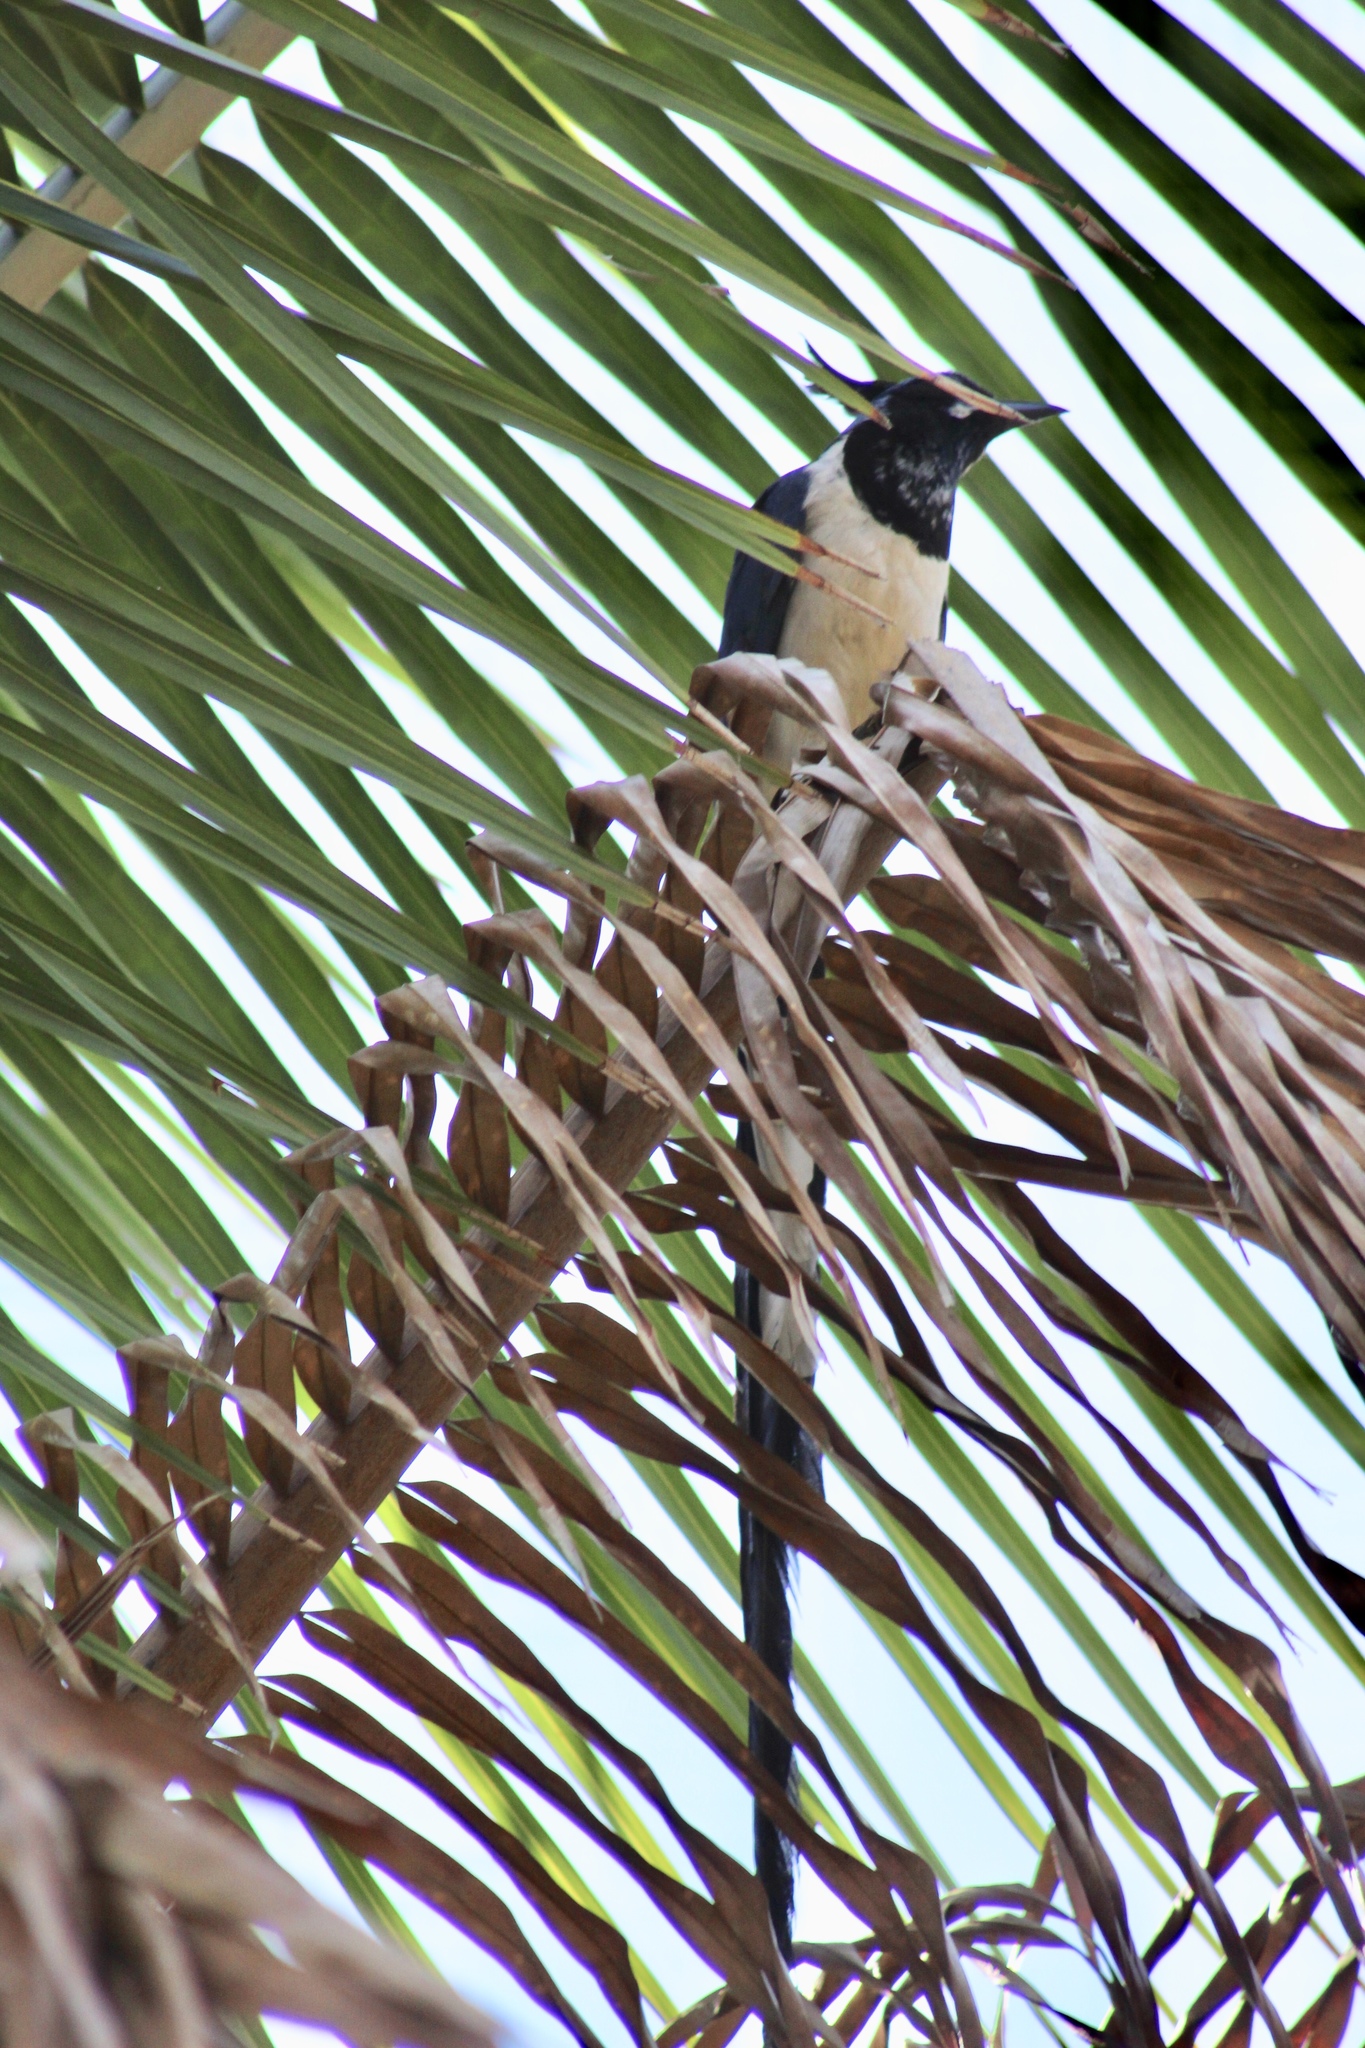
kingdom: Animalia
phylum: Chordata
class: Aves
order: Passeriformes
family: Corvidae
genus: Calocitta
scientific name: Calocitta colliei
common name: Black-throated magpie-jay
